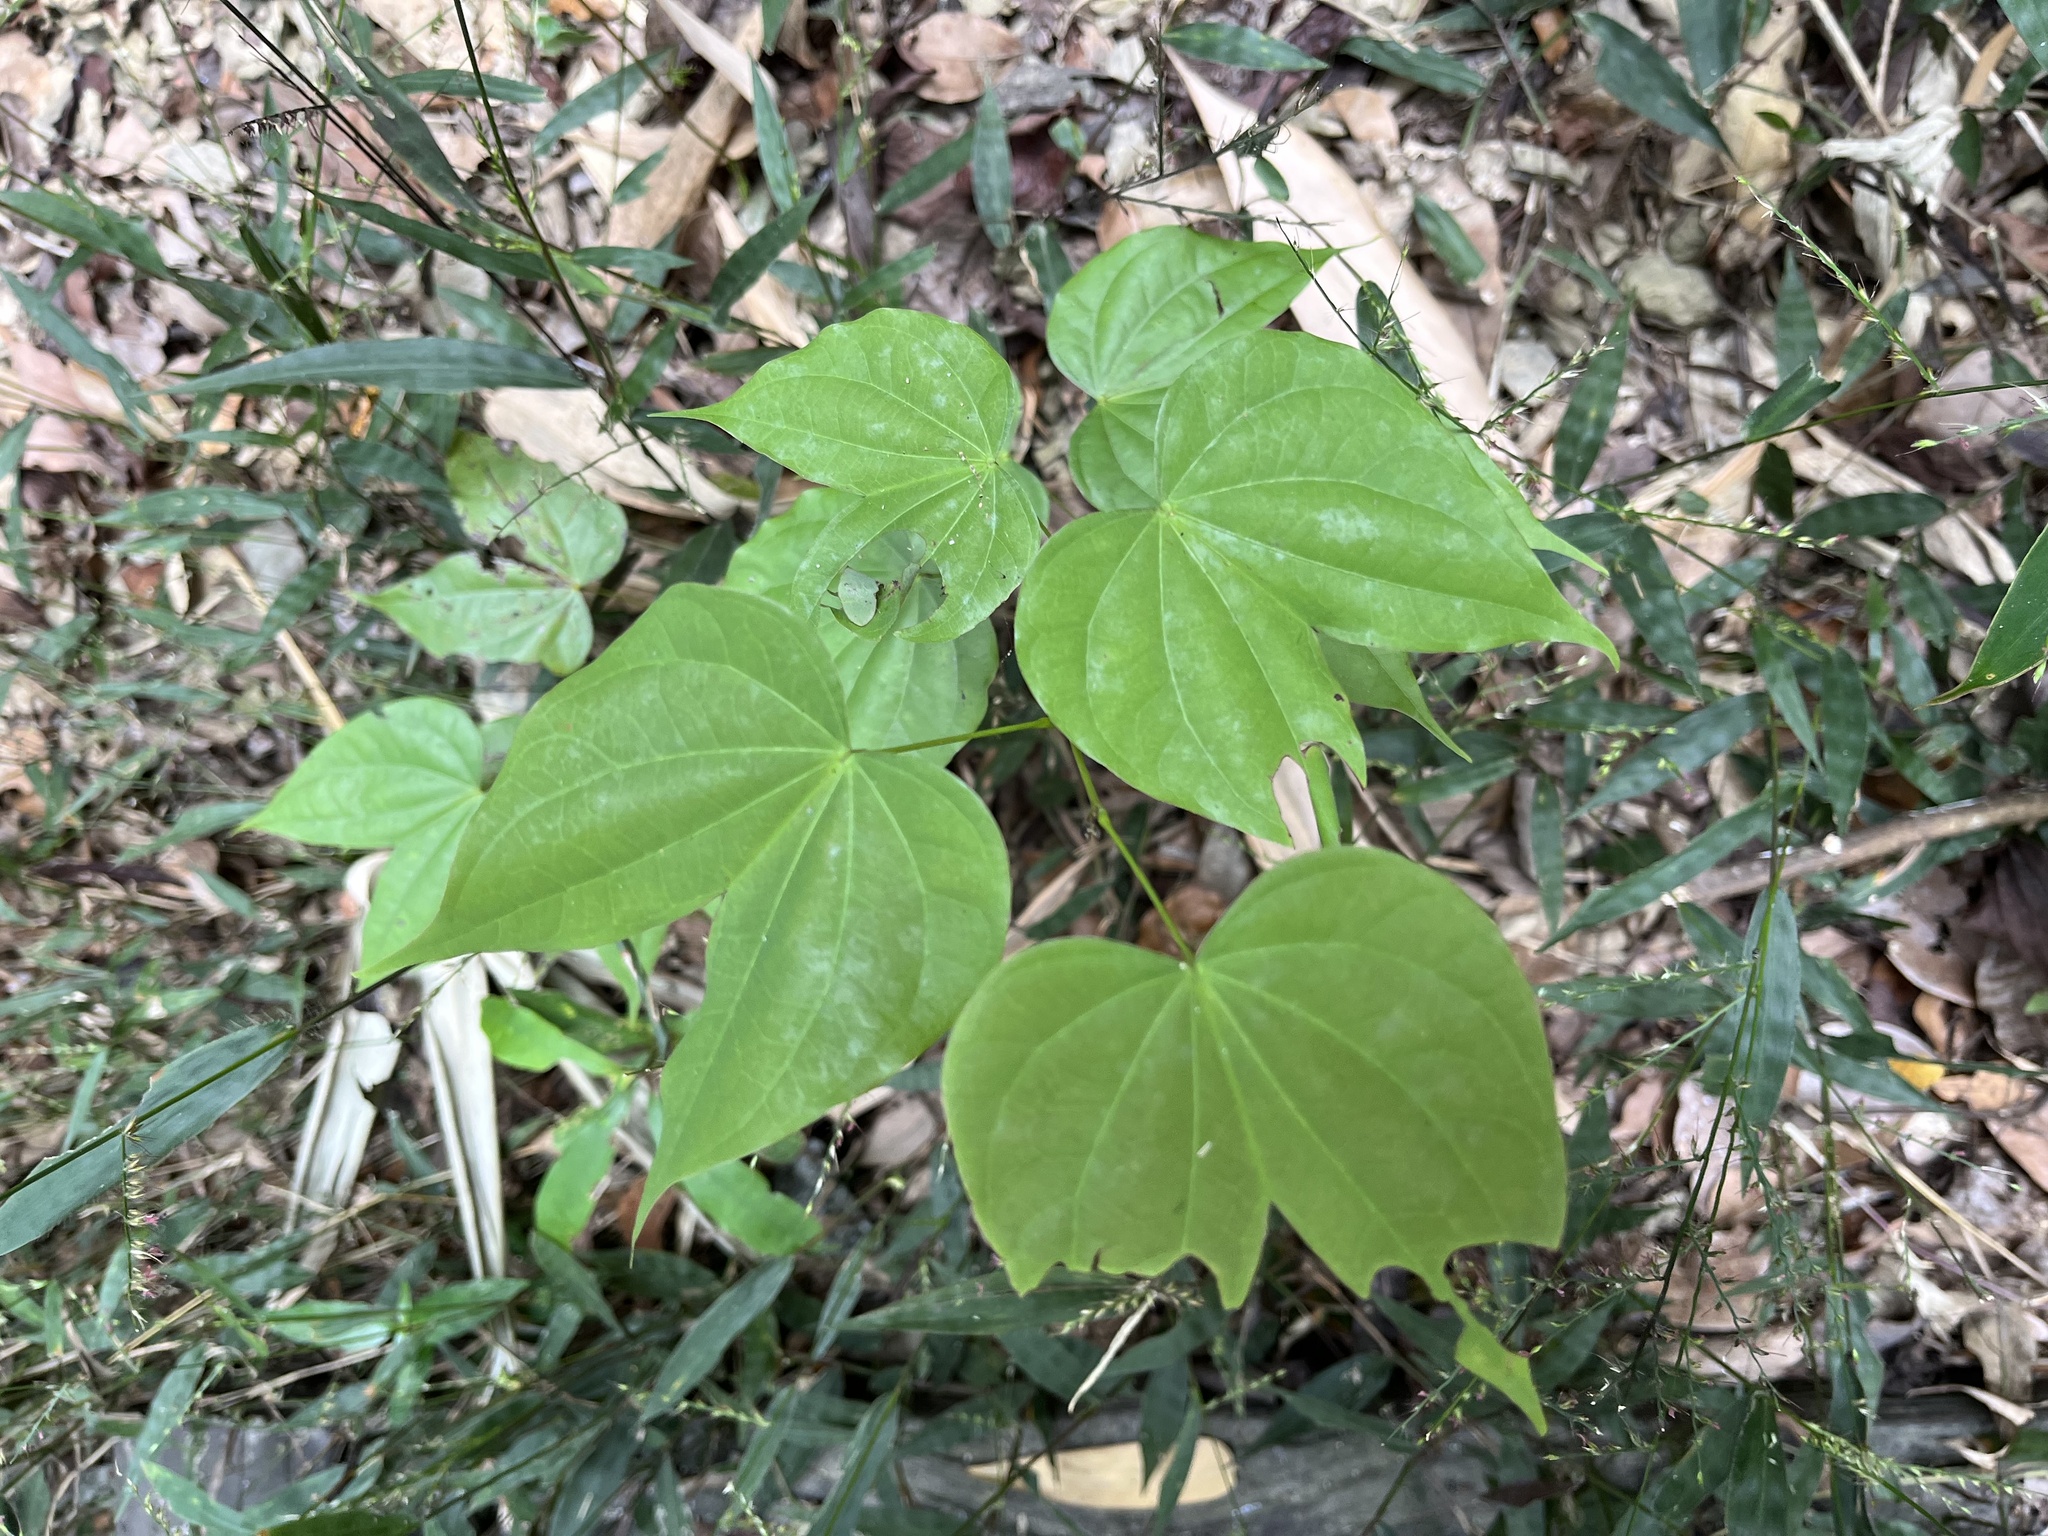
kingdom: Plantae
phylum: Tracheophyta
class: Magnoliopsida
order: Fabales
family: Fabaceae
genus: Phanera
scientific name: Phanera championii
